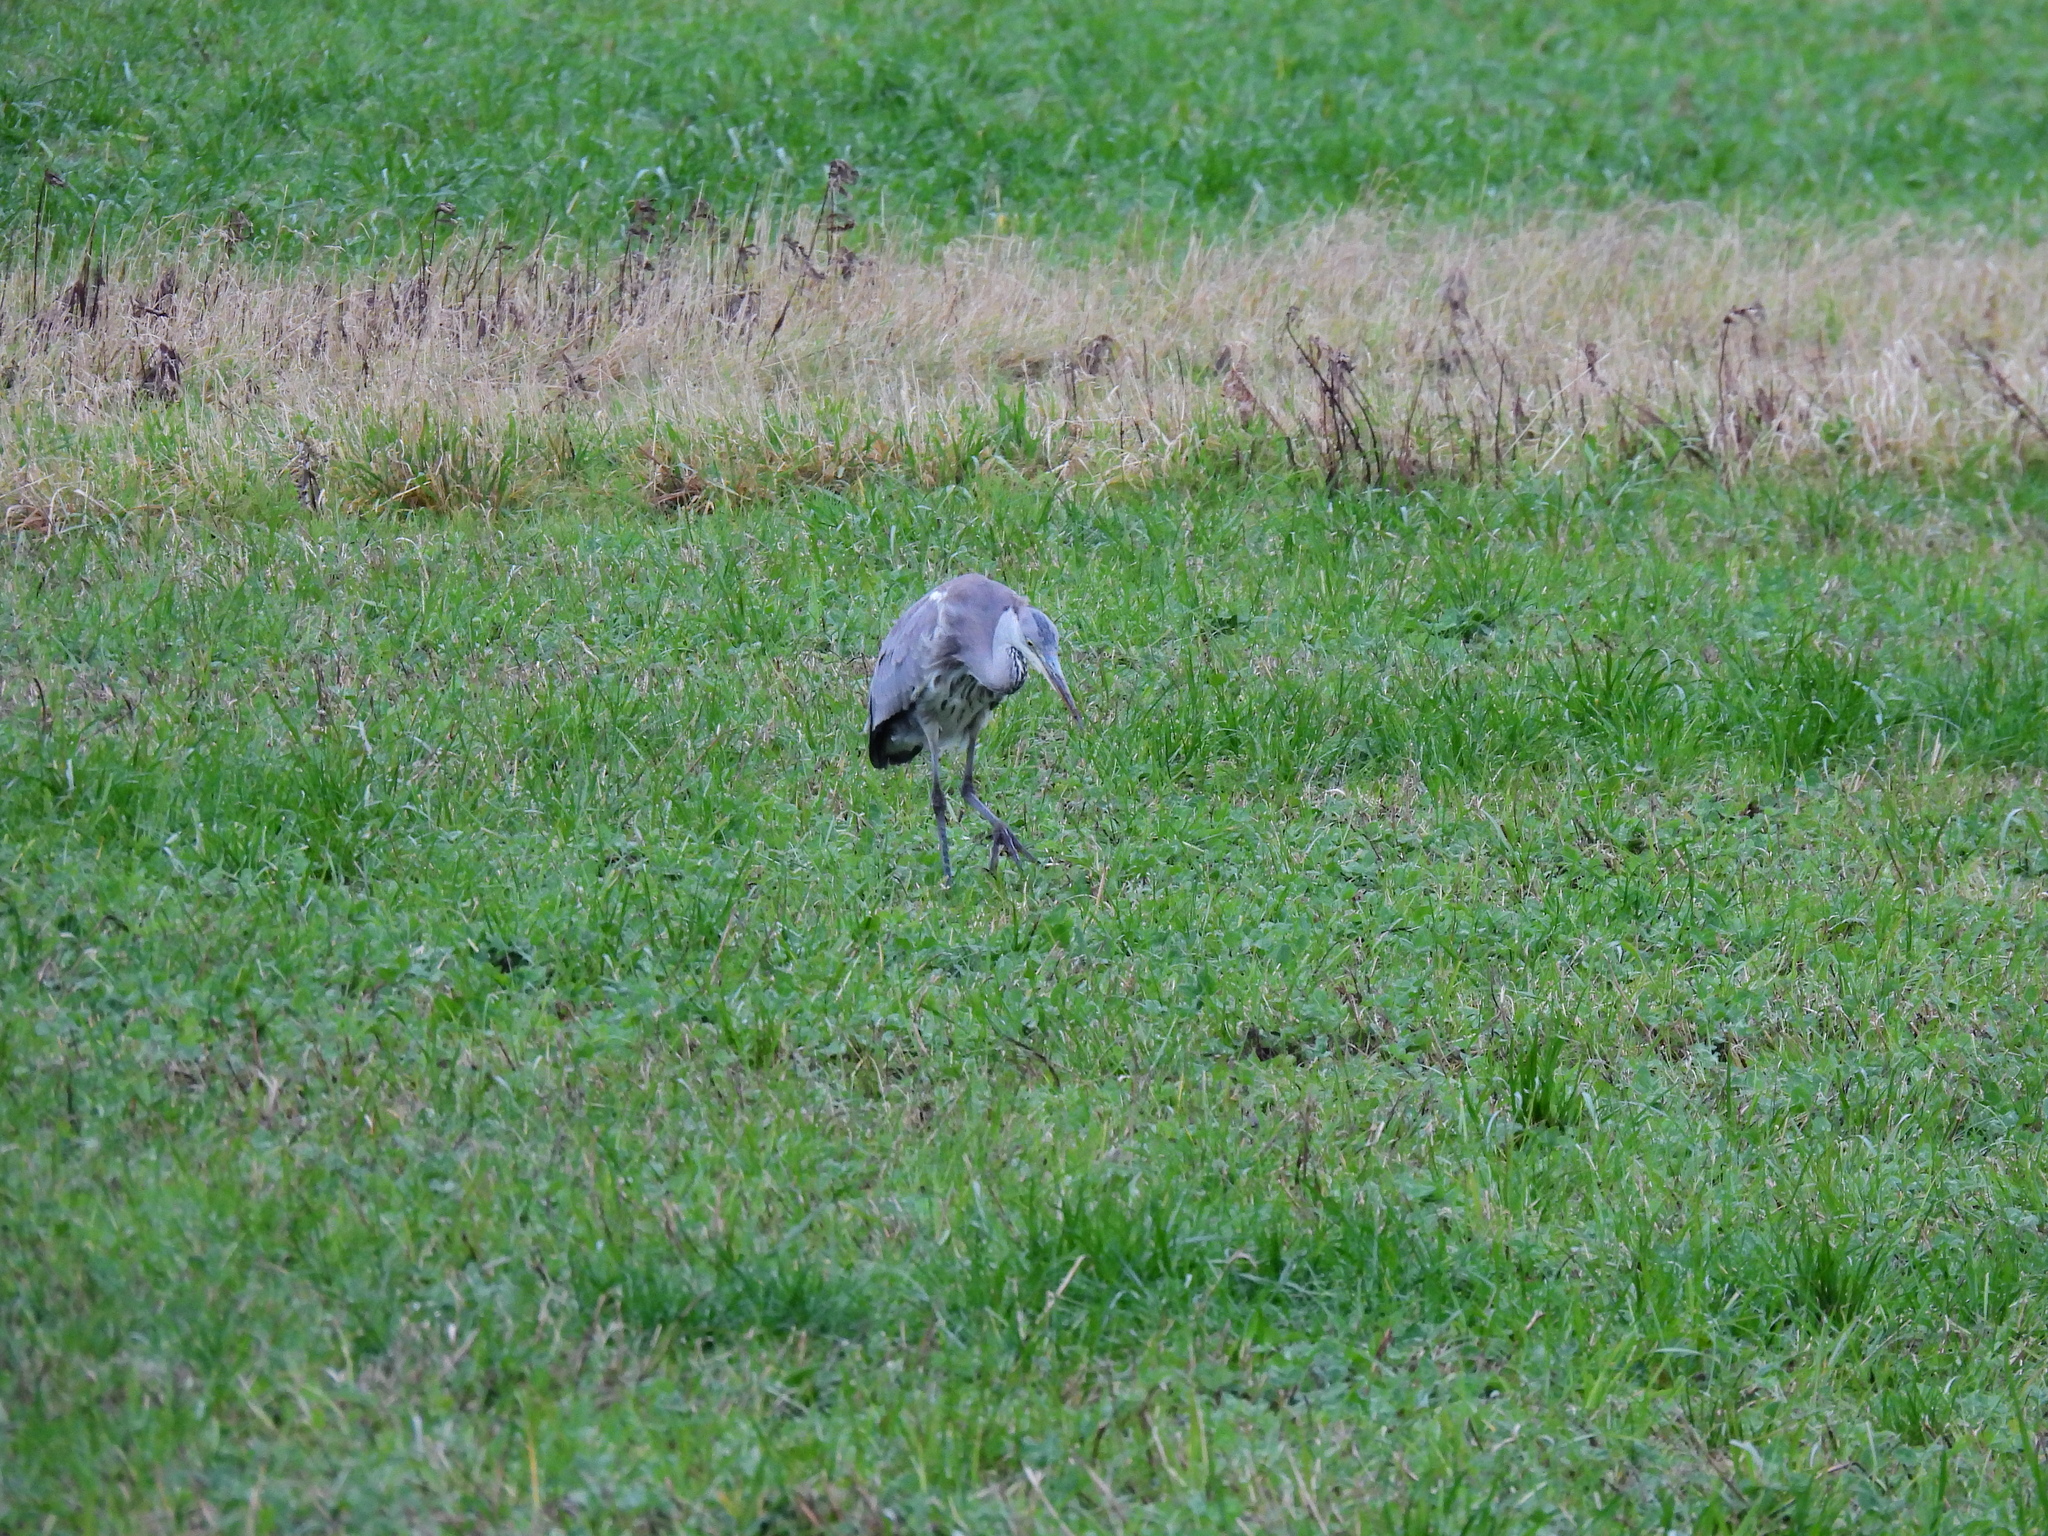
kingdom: Animalia
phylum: Chordata
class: Aves
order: Pelecaniformes
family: Ardeidae
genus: Ardea
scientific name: Ardea cinerea
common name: Grey heron
